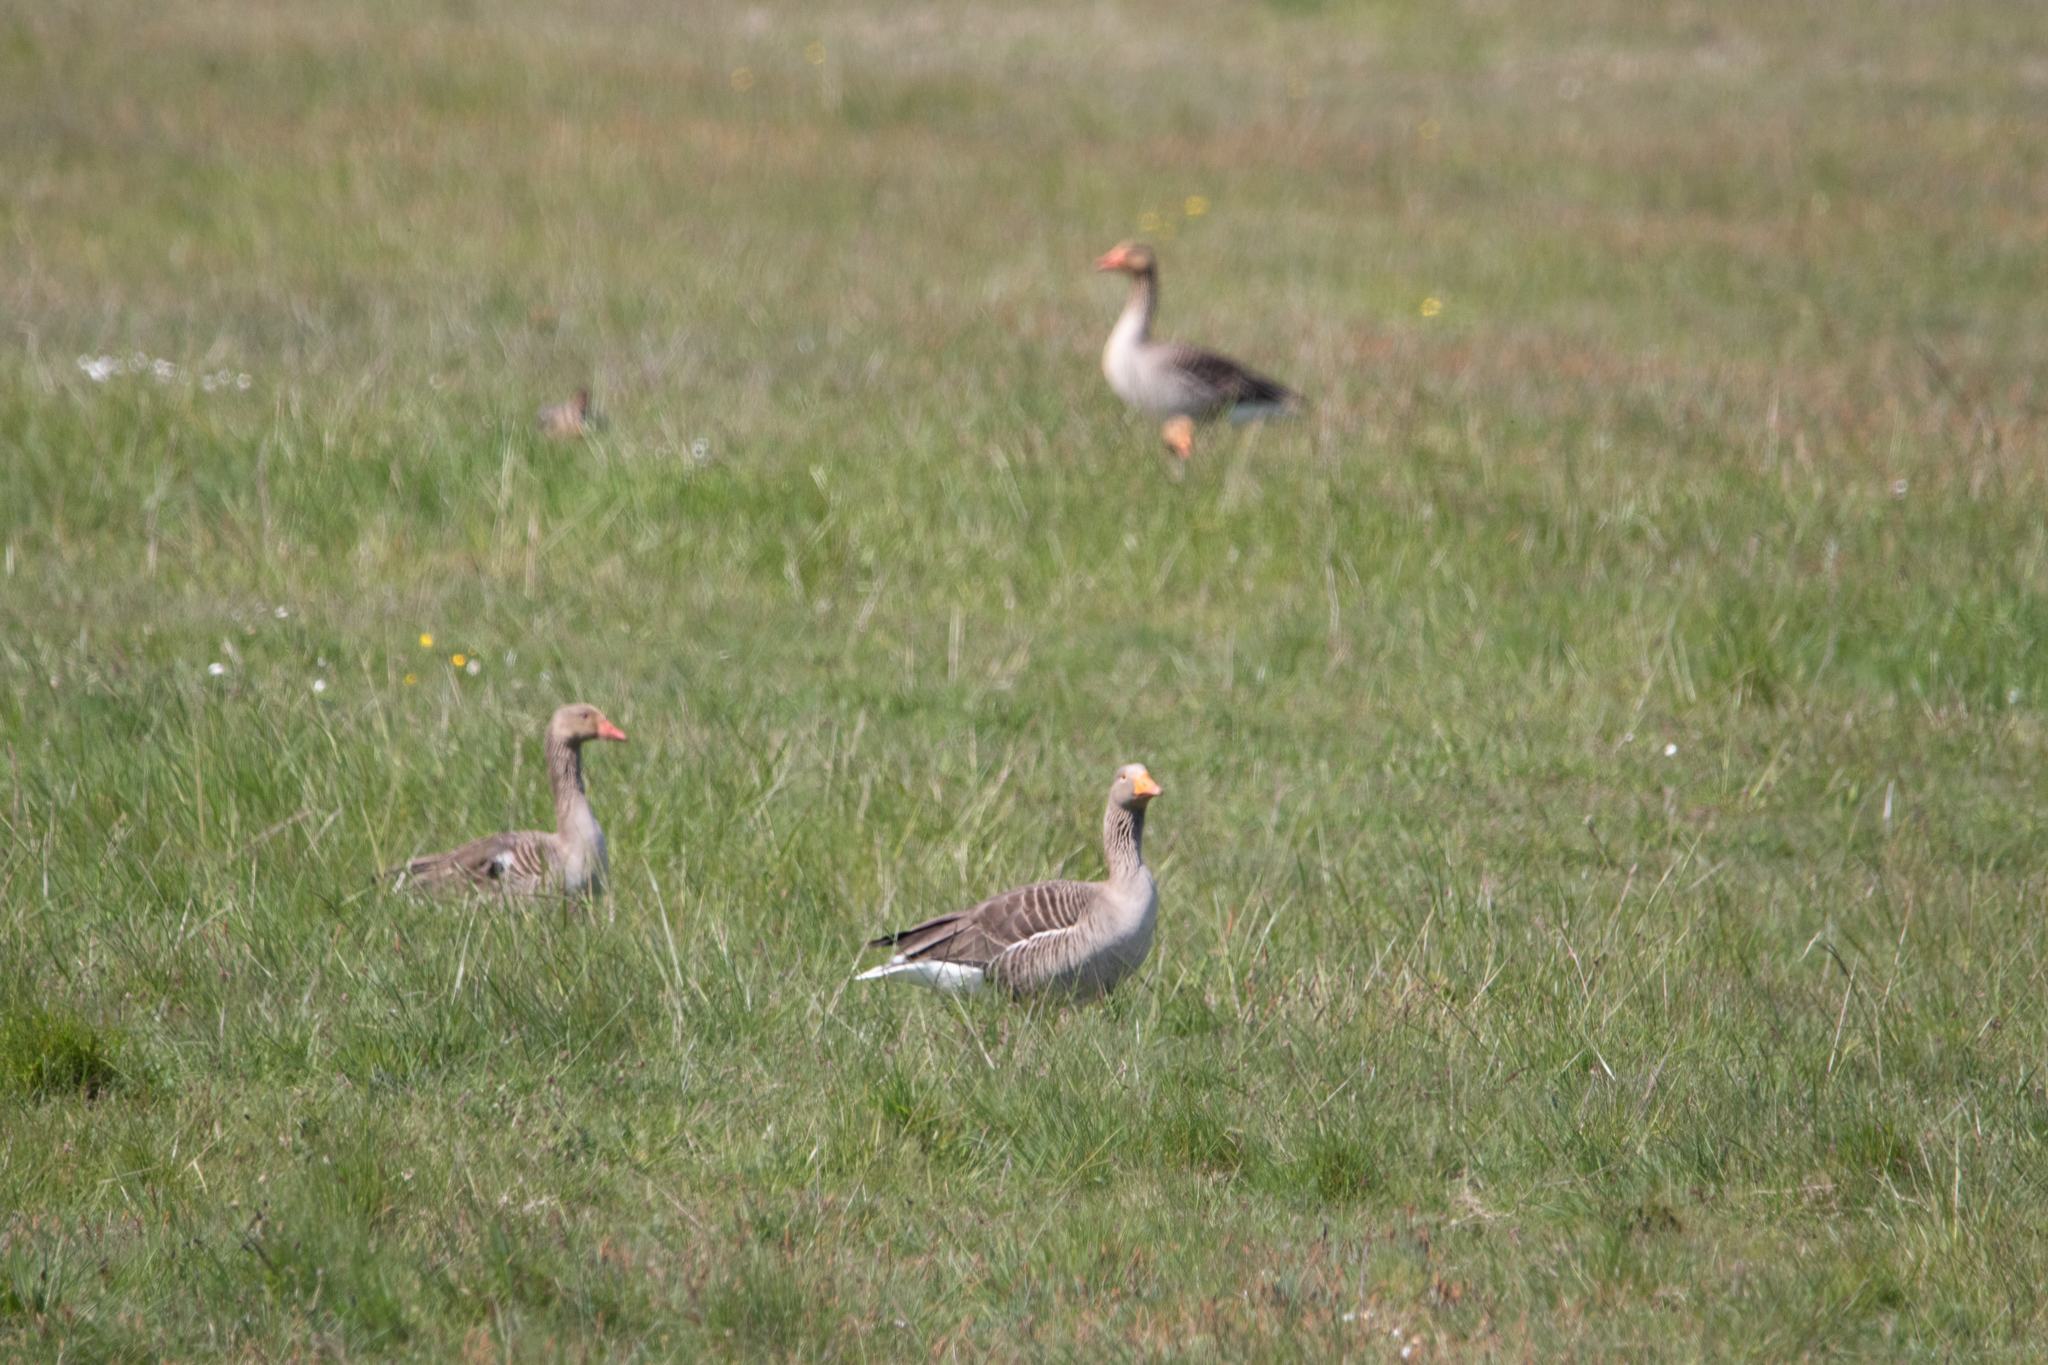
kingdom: Animalia
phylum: Chordata
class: Aves
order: Anseriformes
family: Anatidae
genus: Anser
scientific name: Anser anser
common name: Greylag goose
